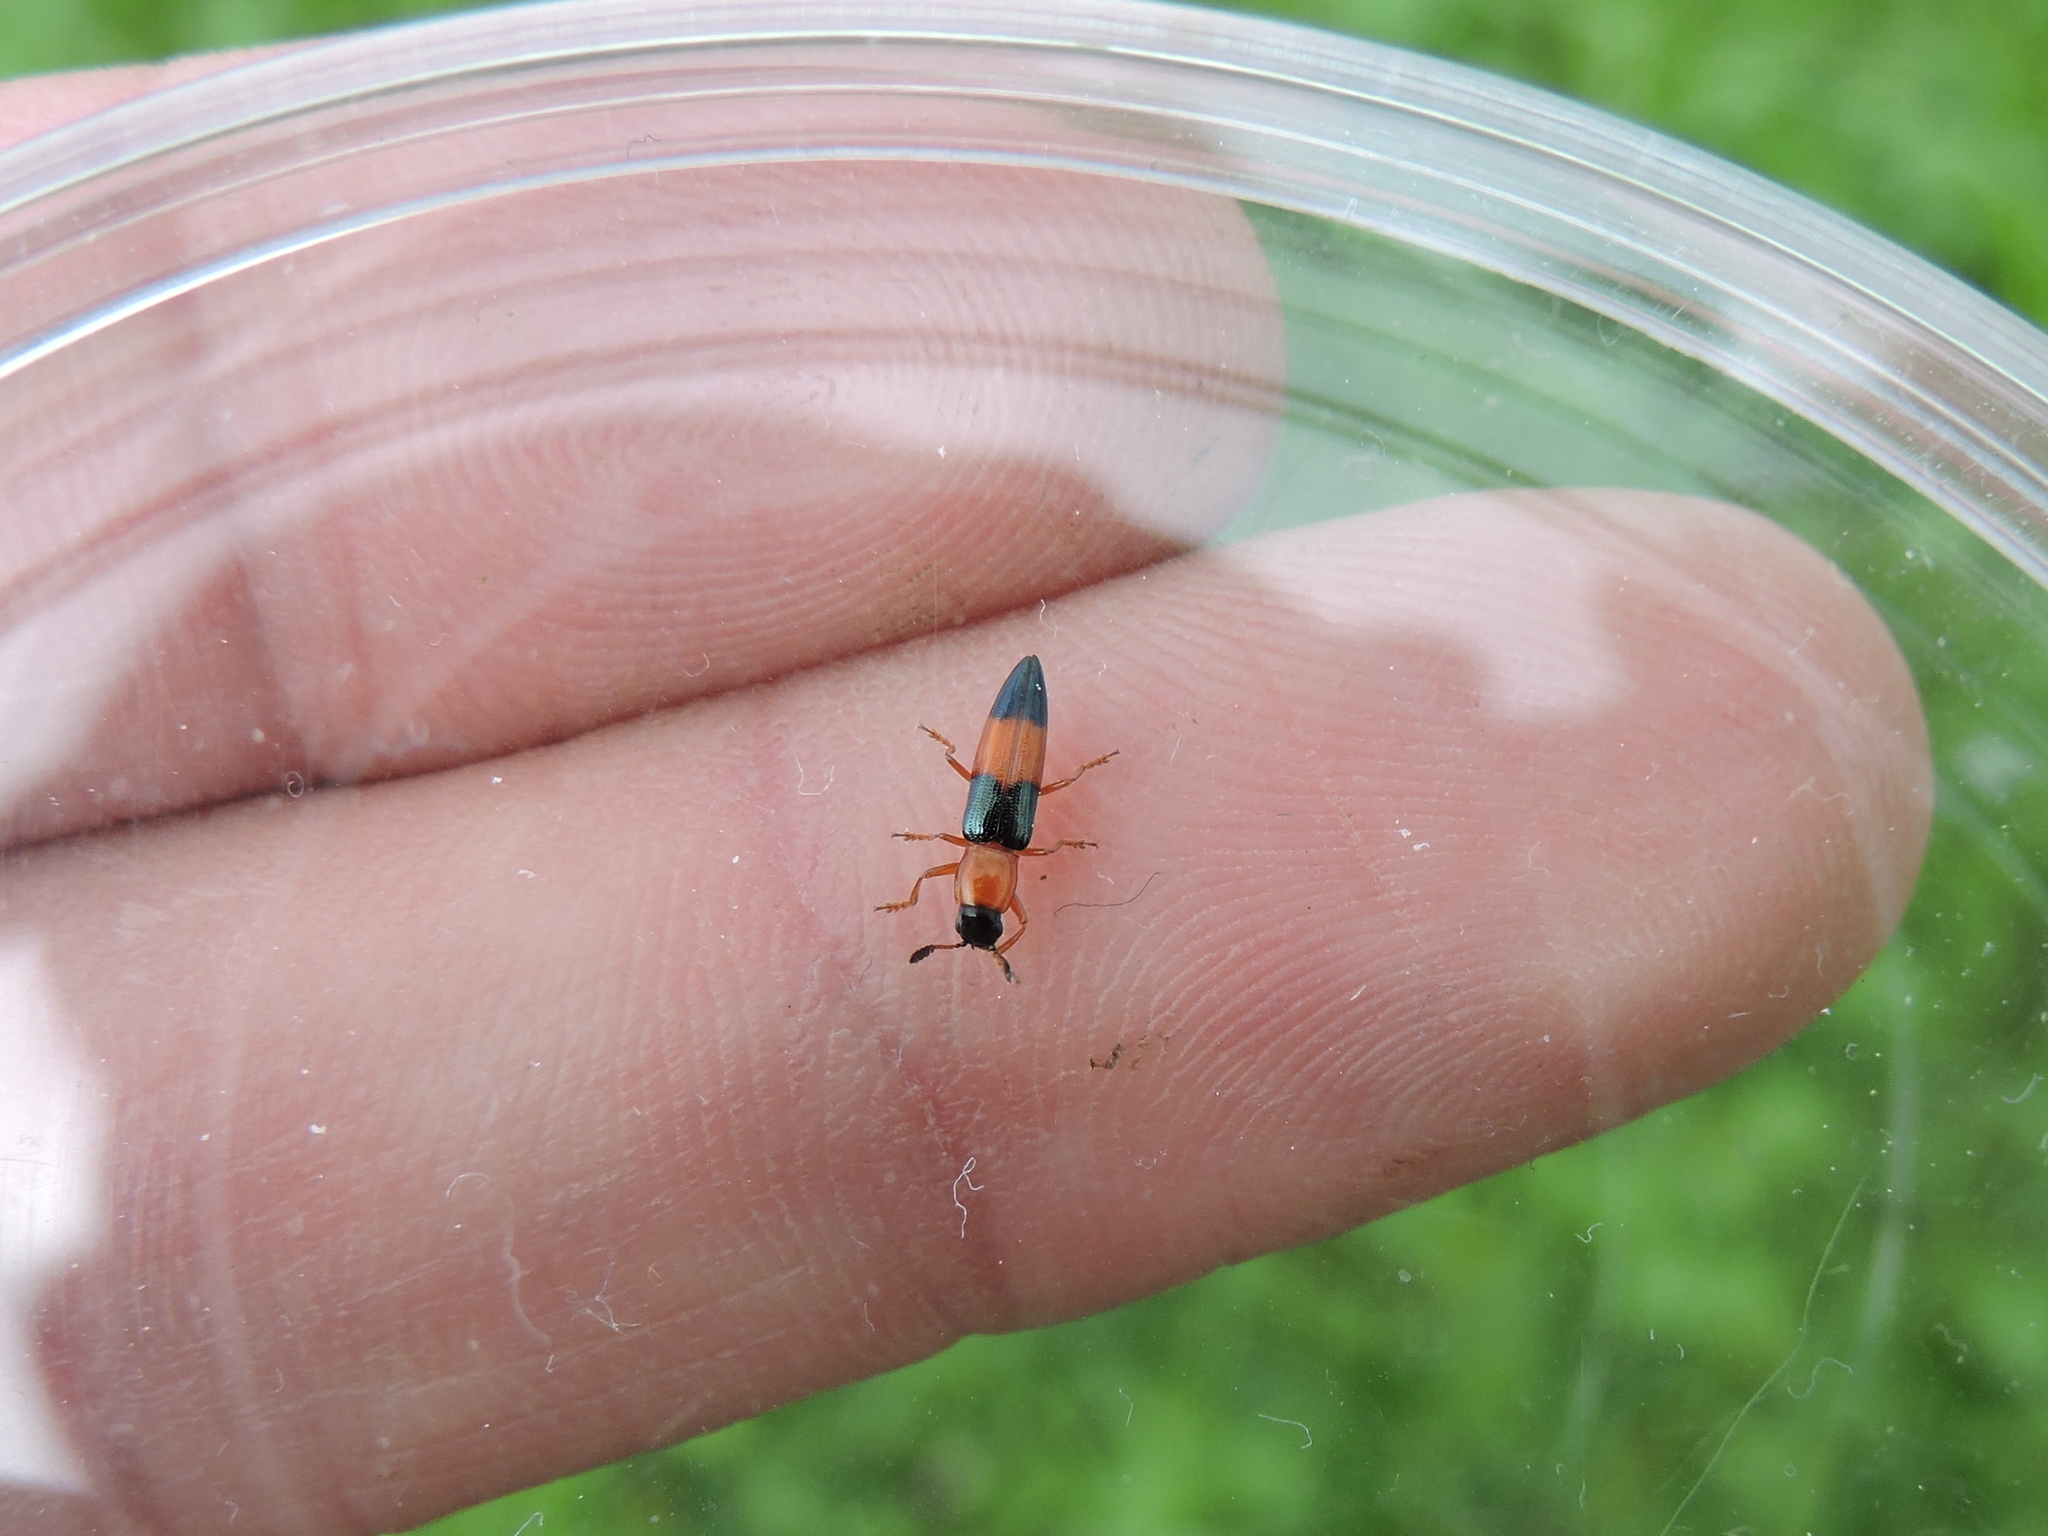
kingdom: Animalia
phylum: Arthropoda
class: Insecta
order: Coleoptera
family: Erotylidae
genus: Languria
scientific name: Languria trifasciata
